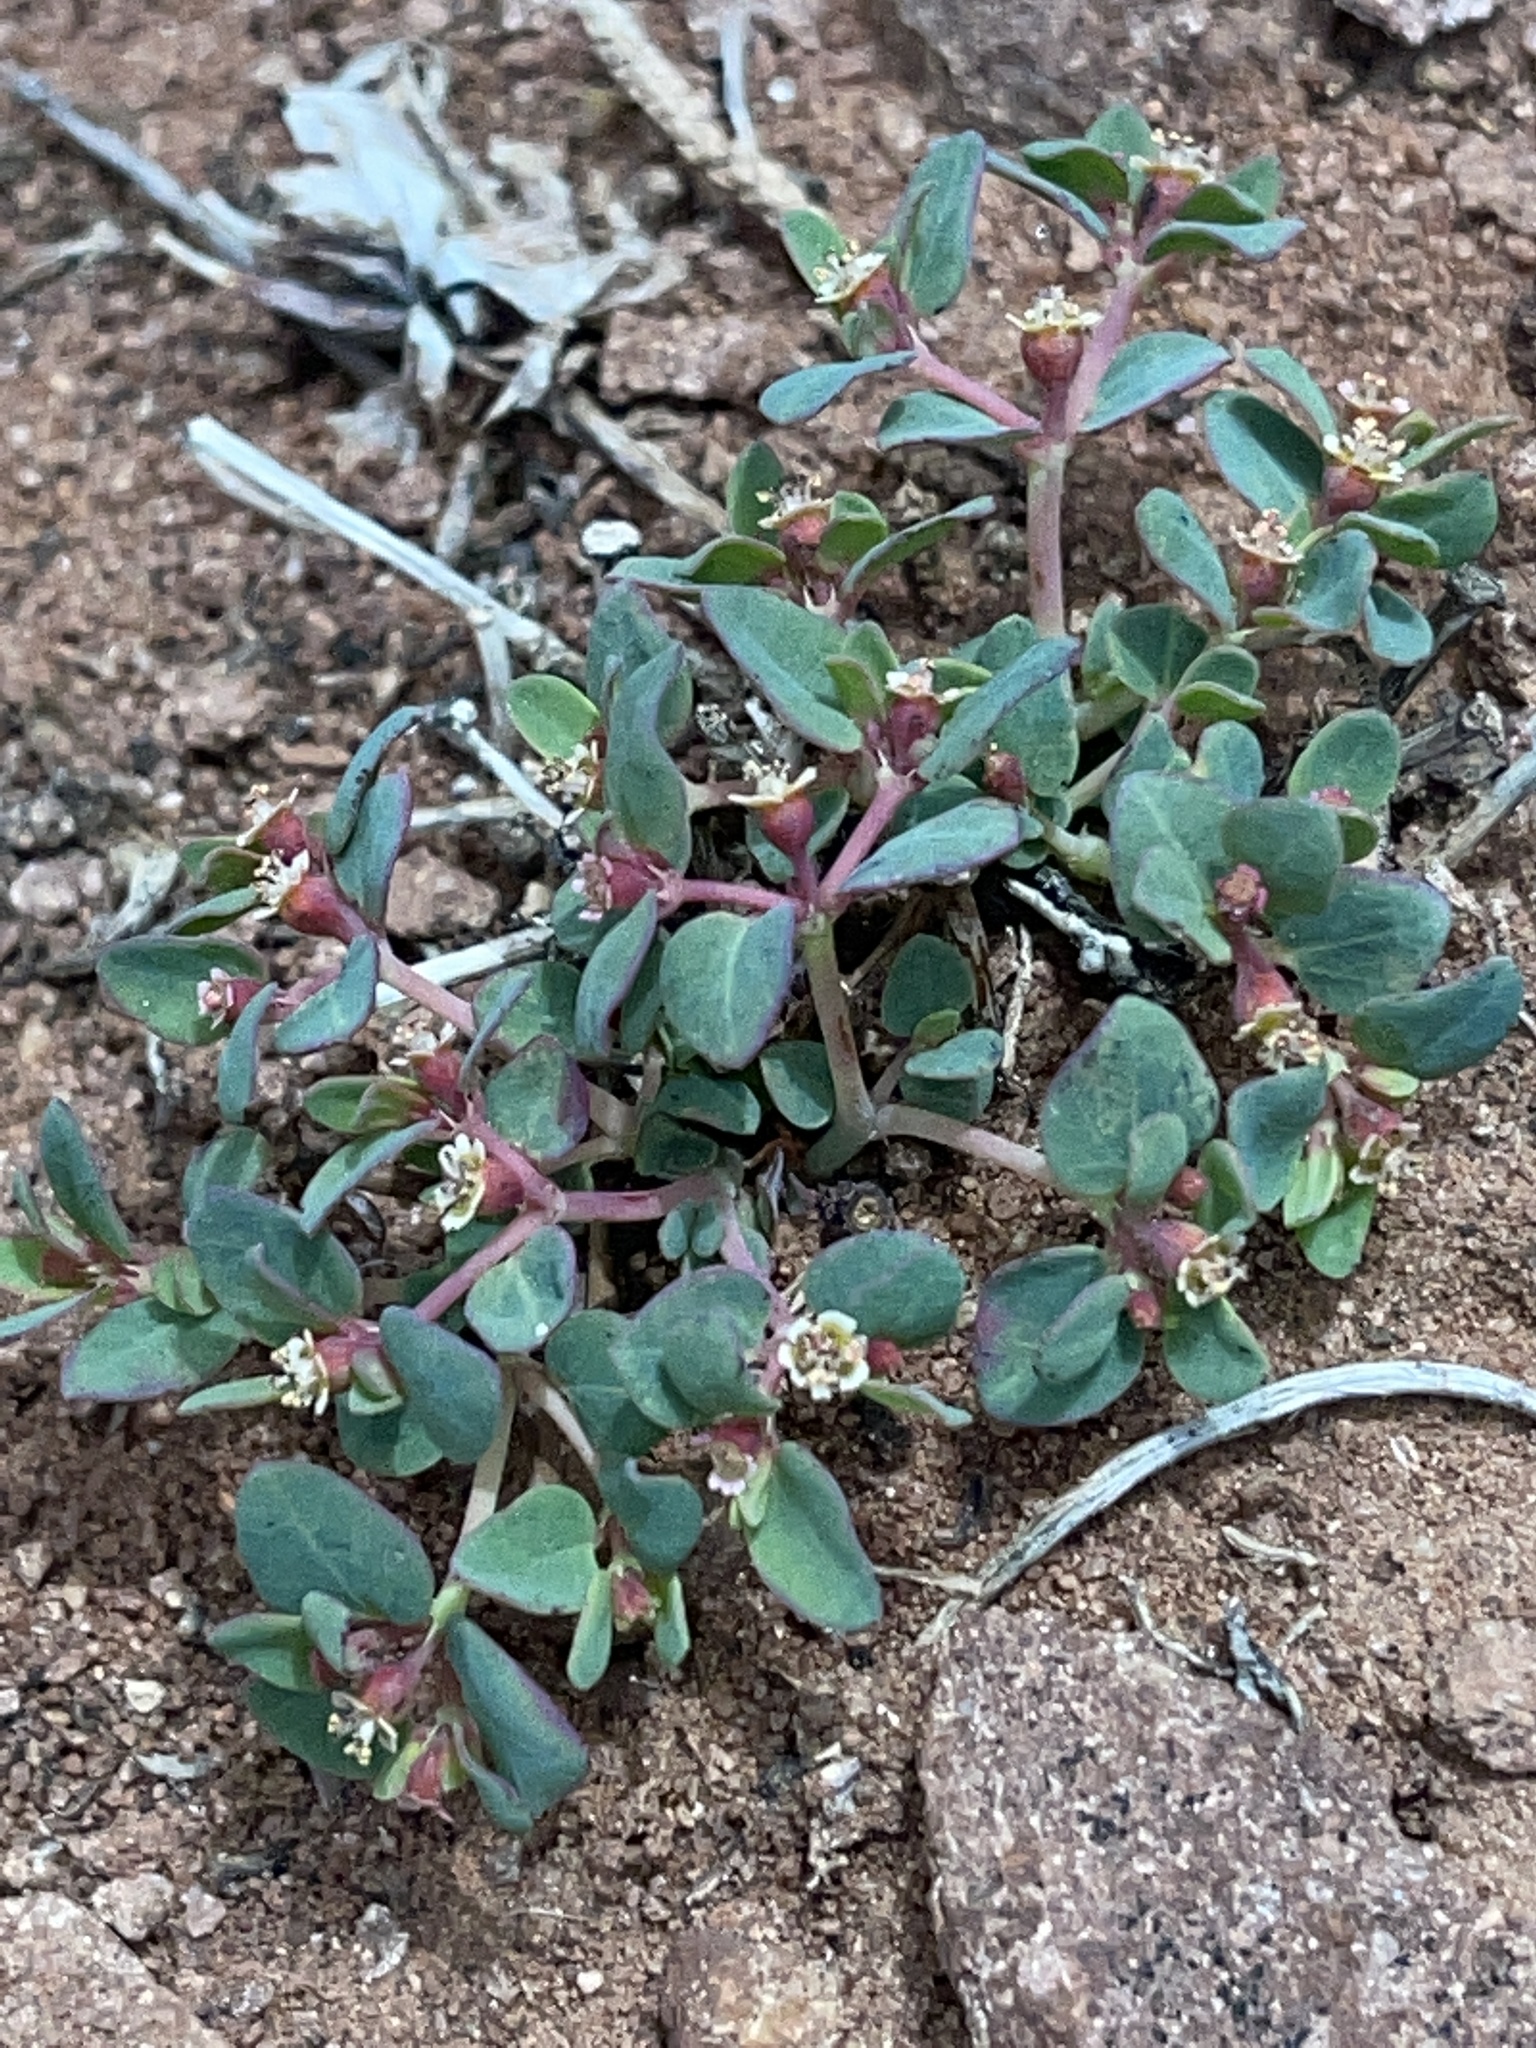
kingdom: Plantae
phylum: Tracheophyta
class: Magnoliopsida
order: Malpighiales
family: Euphorbiaceae
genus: Euphorbia
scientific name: Euphorbia fendleri
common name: Fendler's euphorbia
